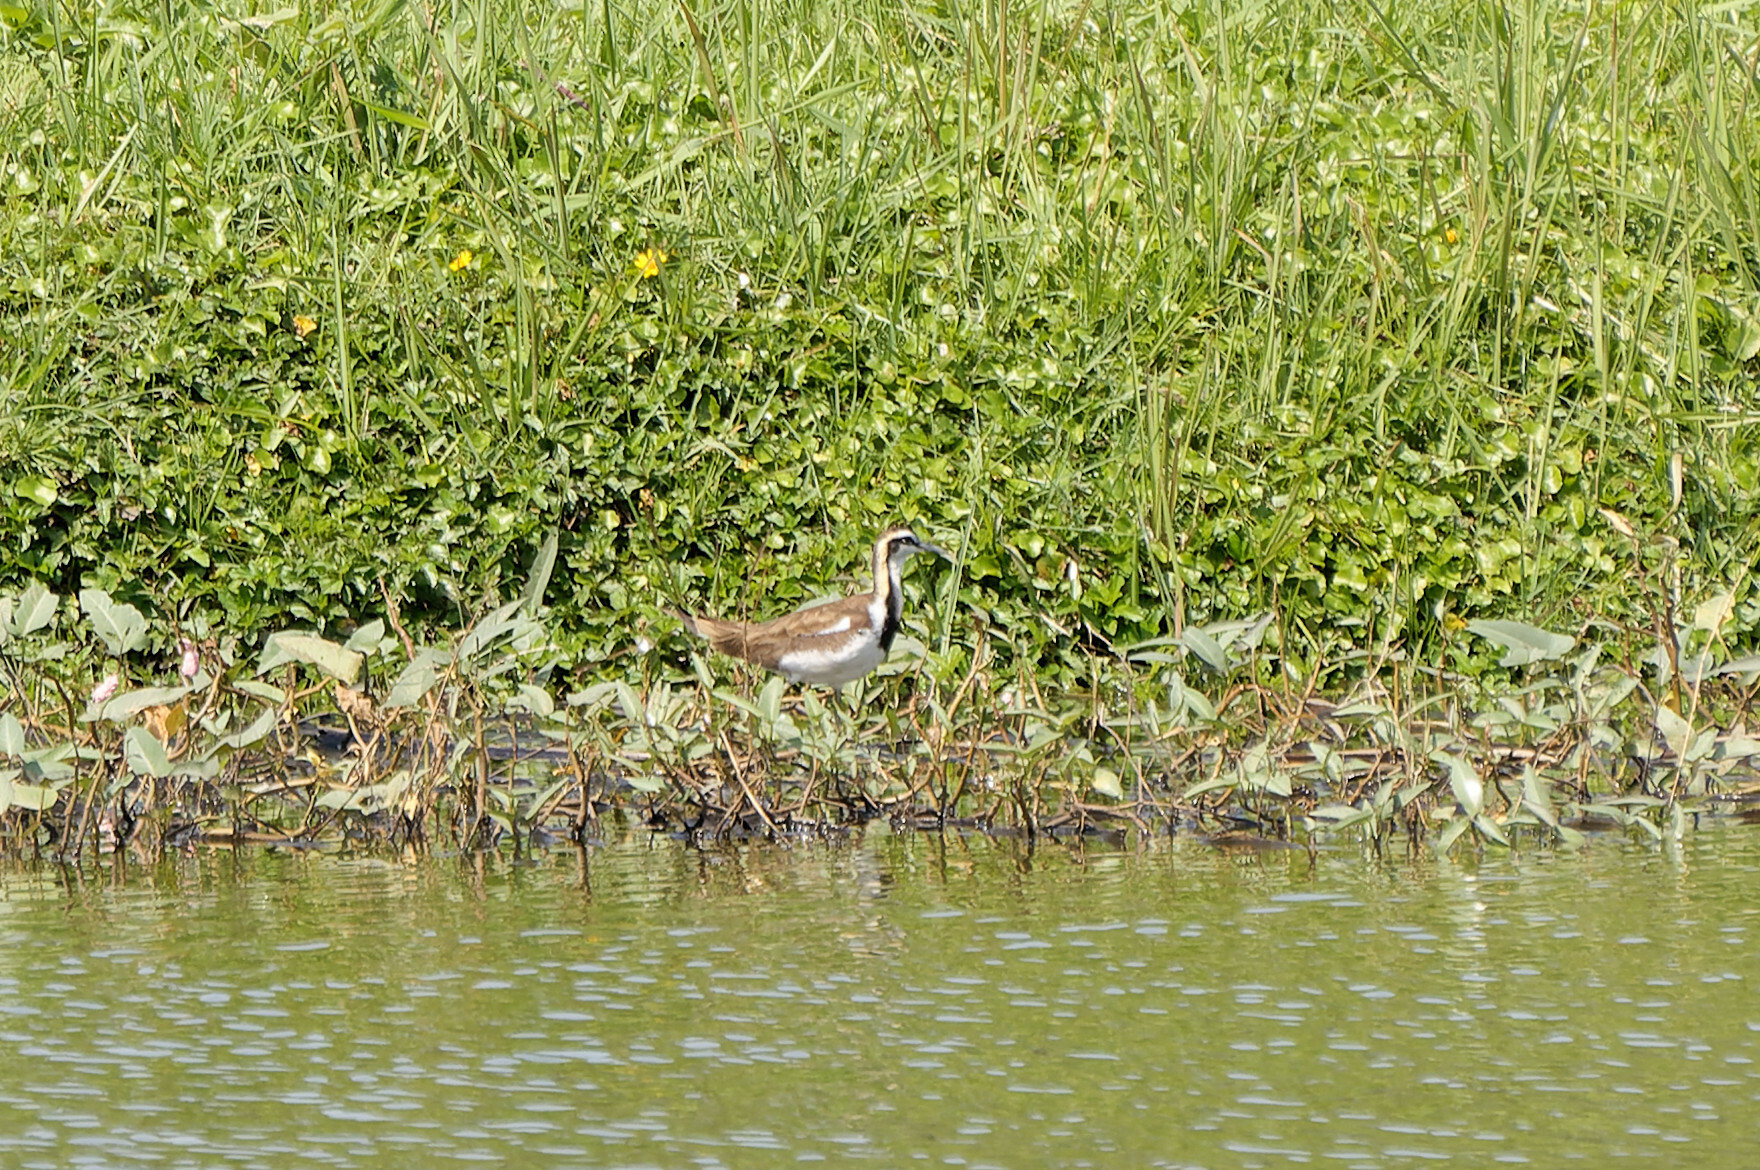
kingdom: Animalia
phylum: Chordata
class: Aves
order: Charadriiformes
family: Jacanidae
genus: Hydrophasianus
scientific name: Hydrophasianus chirurgus
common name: Pheasant-tailed jacana
